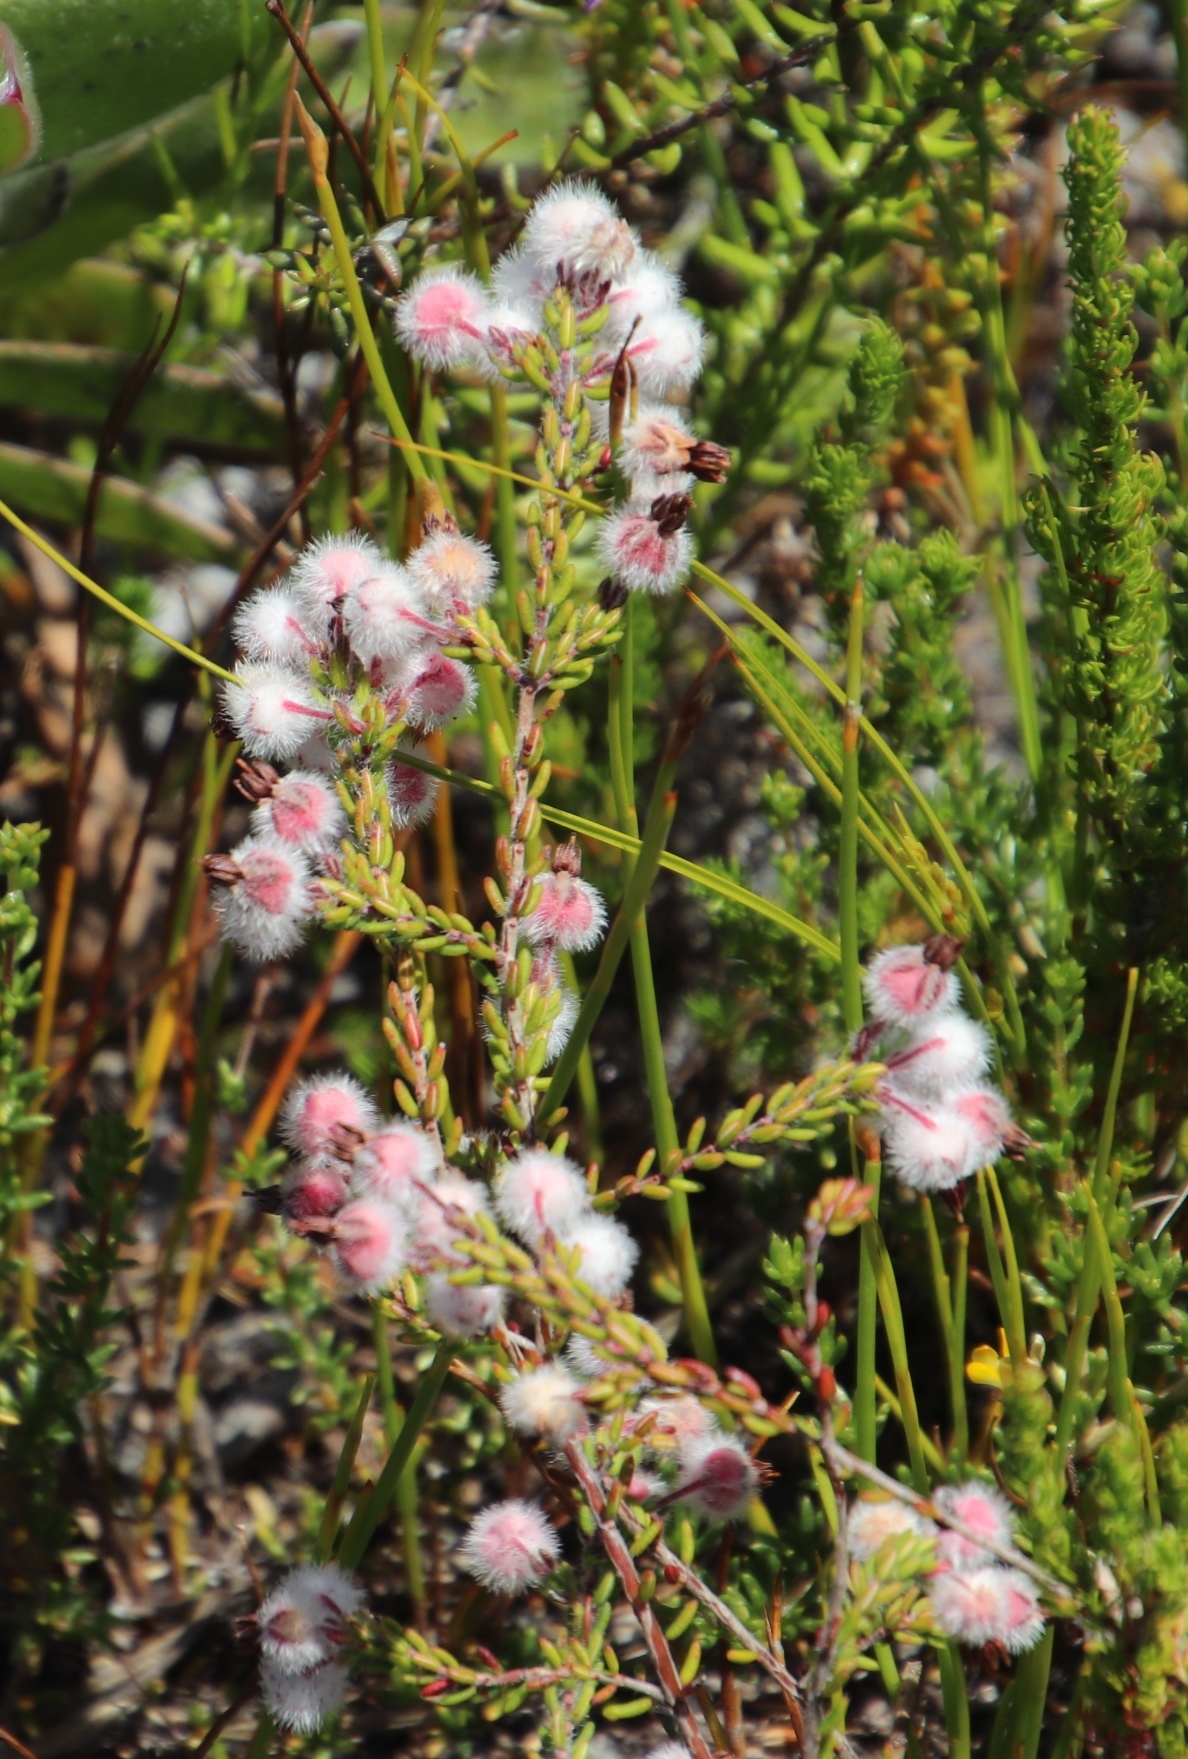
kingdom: Plantae
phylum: Tracheophyta
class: Magnoliopsida
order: Ericales
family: Ericaceae
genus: Erica
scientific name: Erica bruniades
